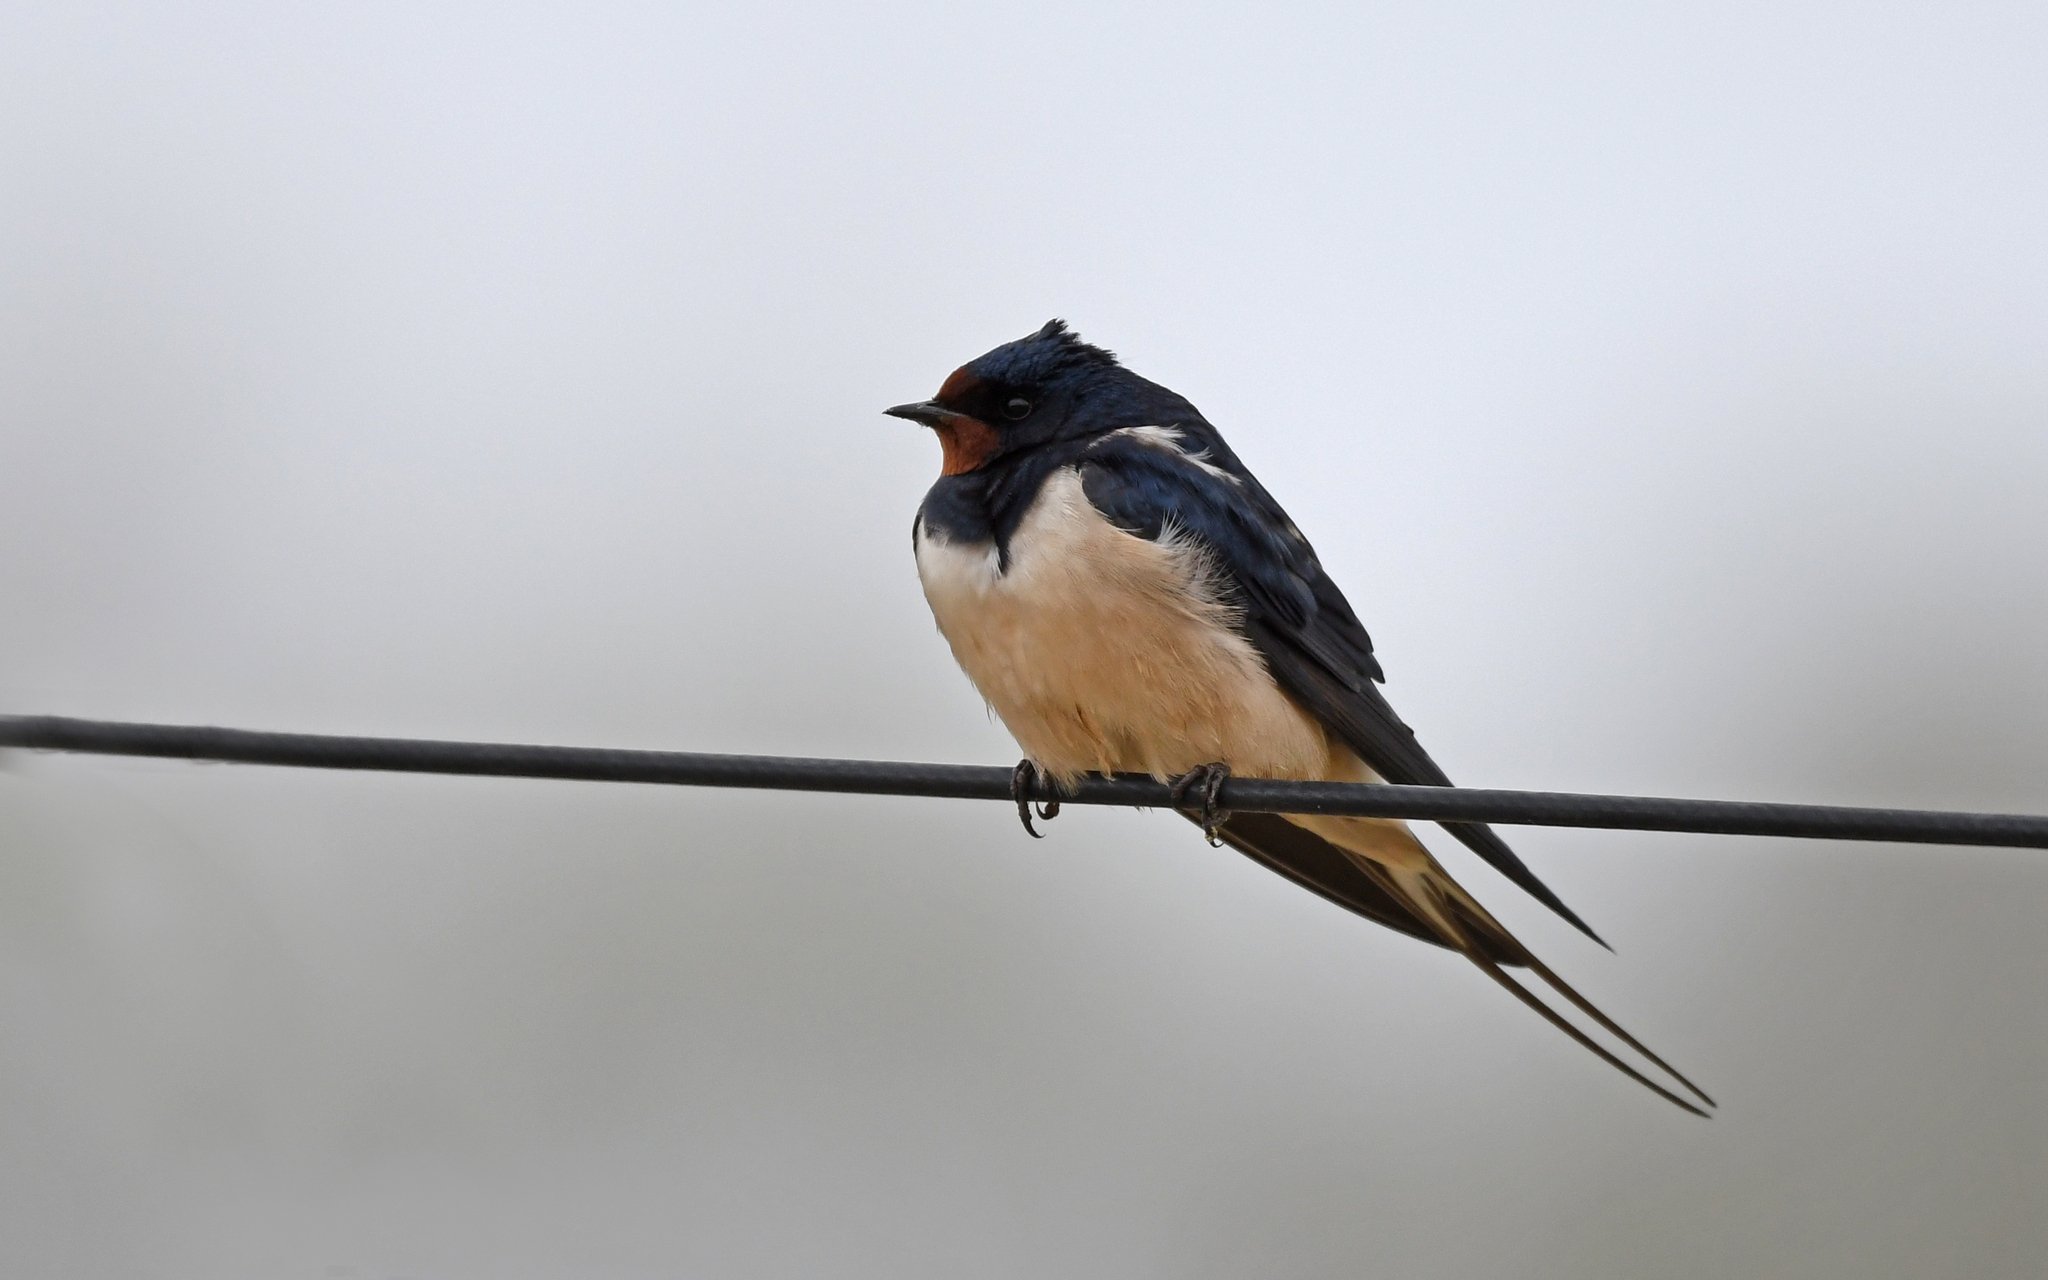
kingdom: Animalia
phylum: Chordata
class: Aves
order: Passeriformes
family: Hirundinidae
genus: Hirundo
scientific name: Hirundo rustica
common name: Barn swallow
